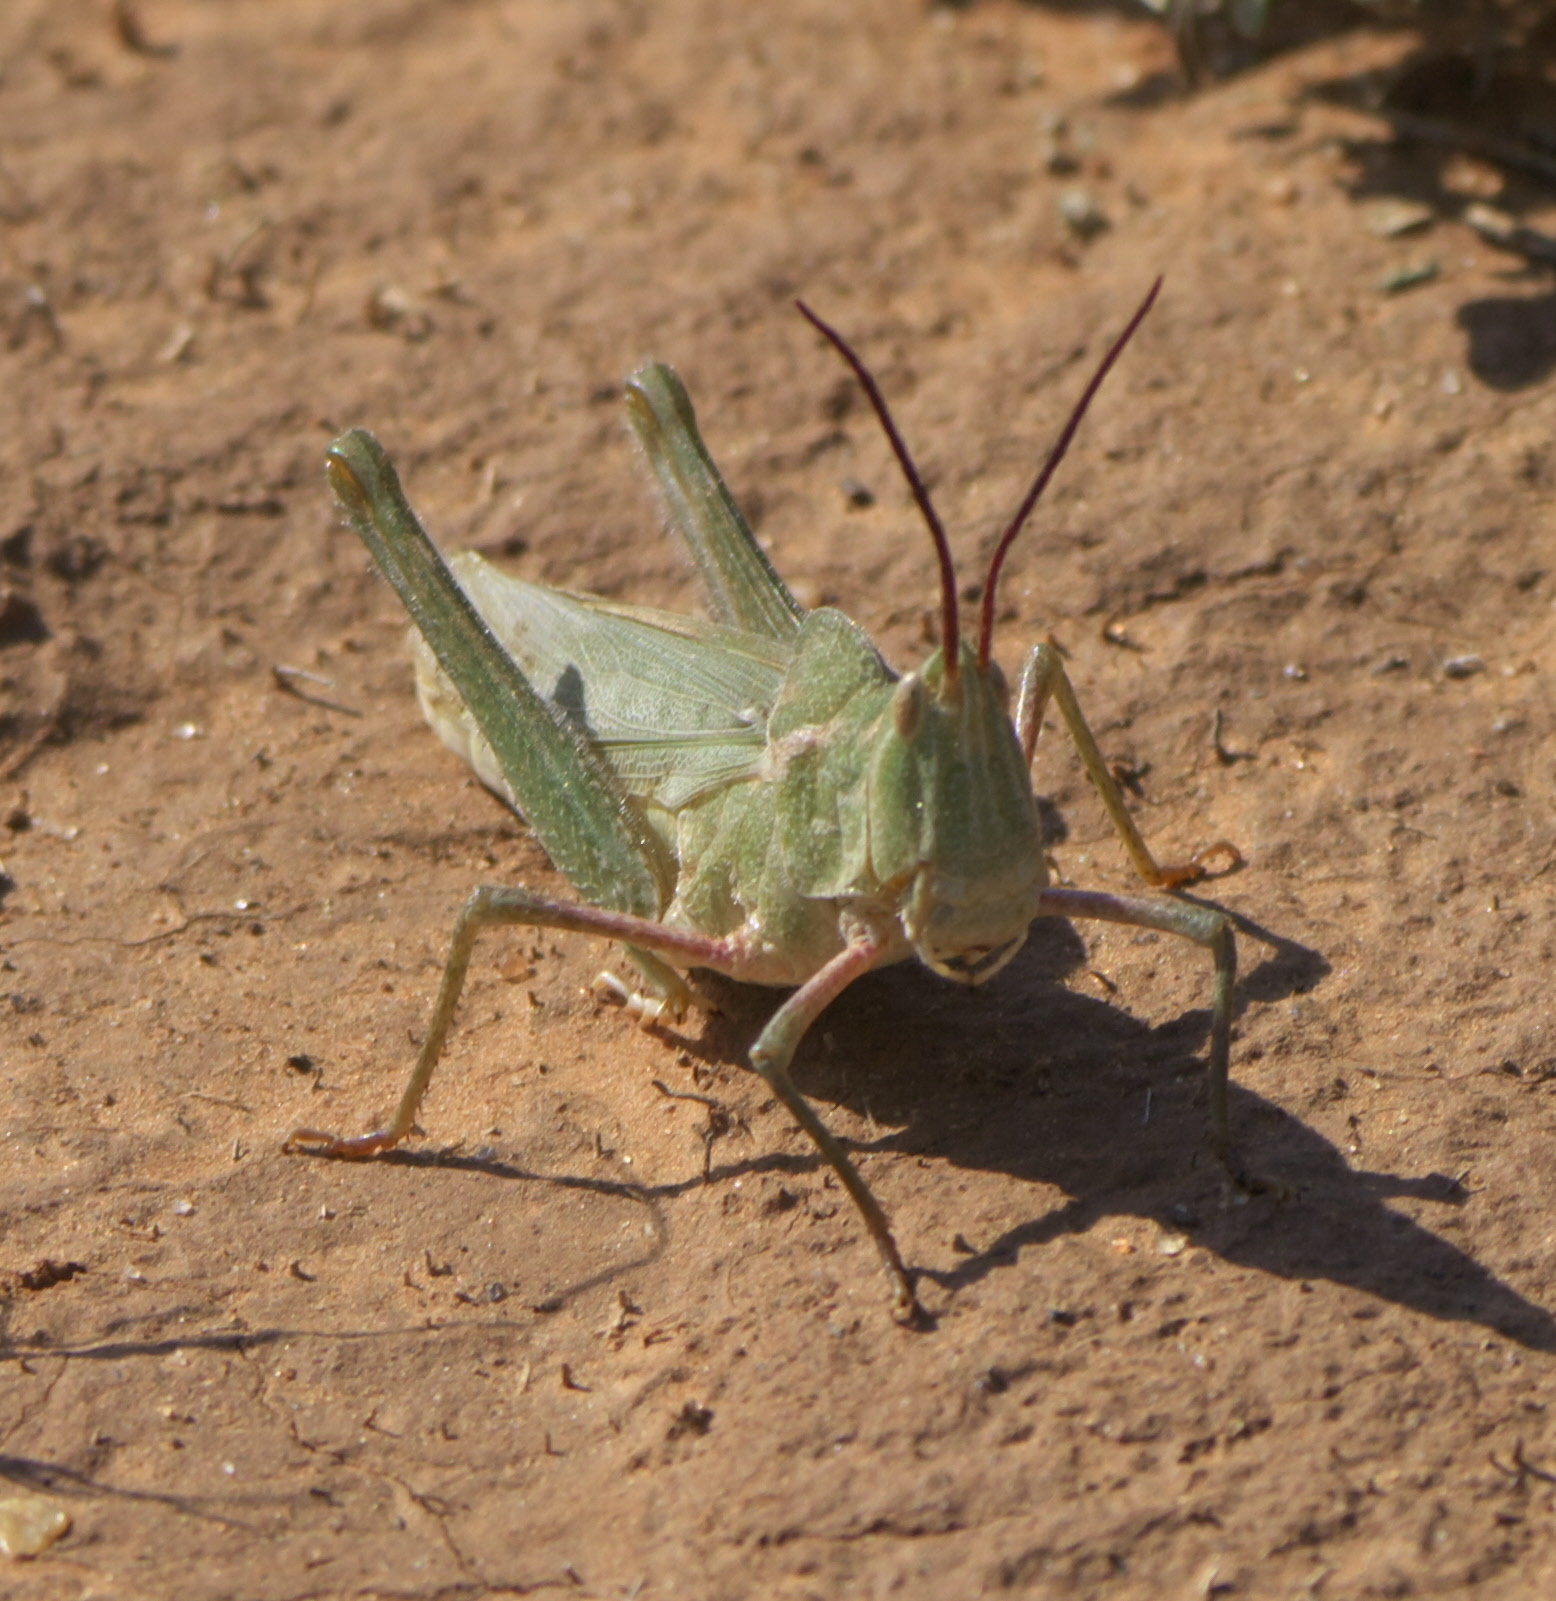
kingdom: Animalia
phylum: Arthropoda
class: Insecta
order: Orthoptera
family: Acrididae
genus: Acrolophitus
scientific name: Acrolophitus hirtipes
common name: Green fool grasshopper
